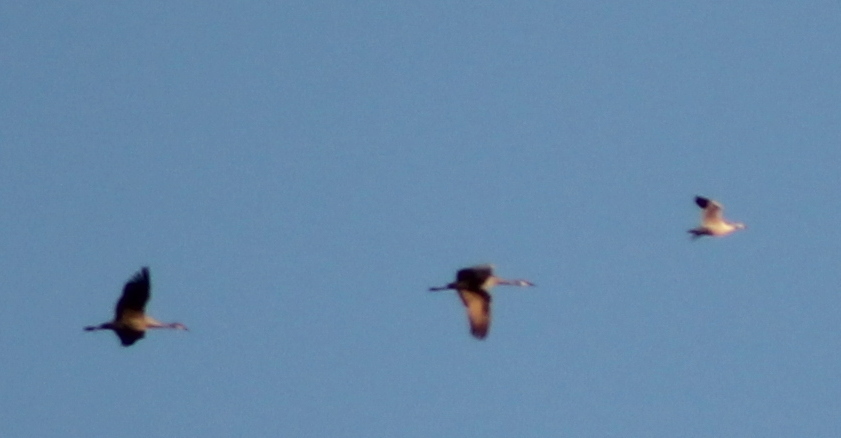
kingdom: Animalia
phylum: Chordata
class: Aves
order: Gruiformes
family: Gruidae
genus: Grus
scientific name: Grus canadensis
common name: Sandhill crane
